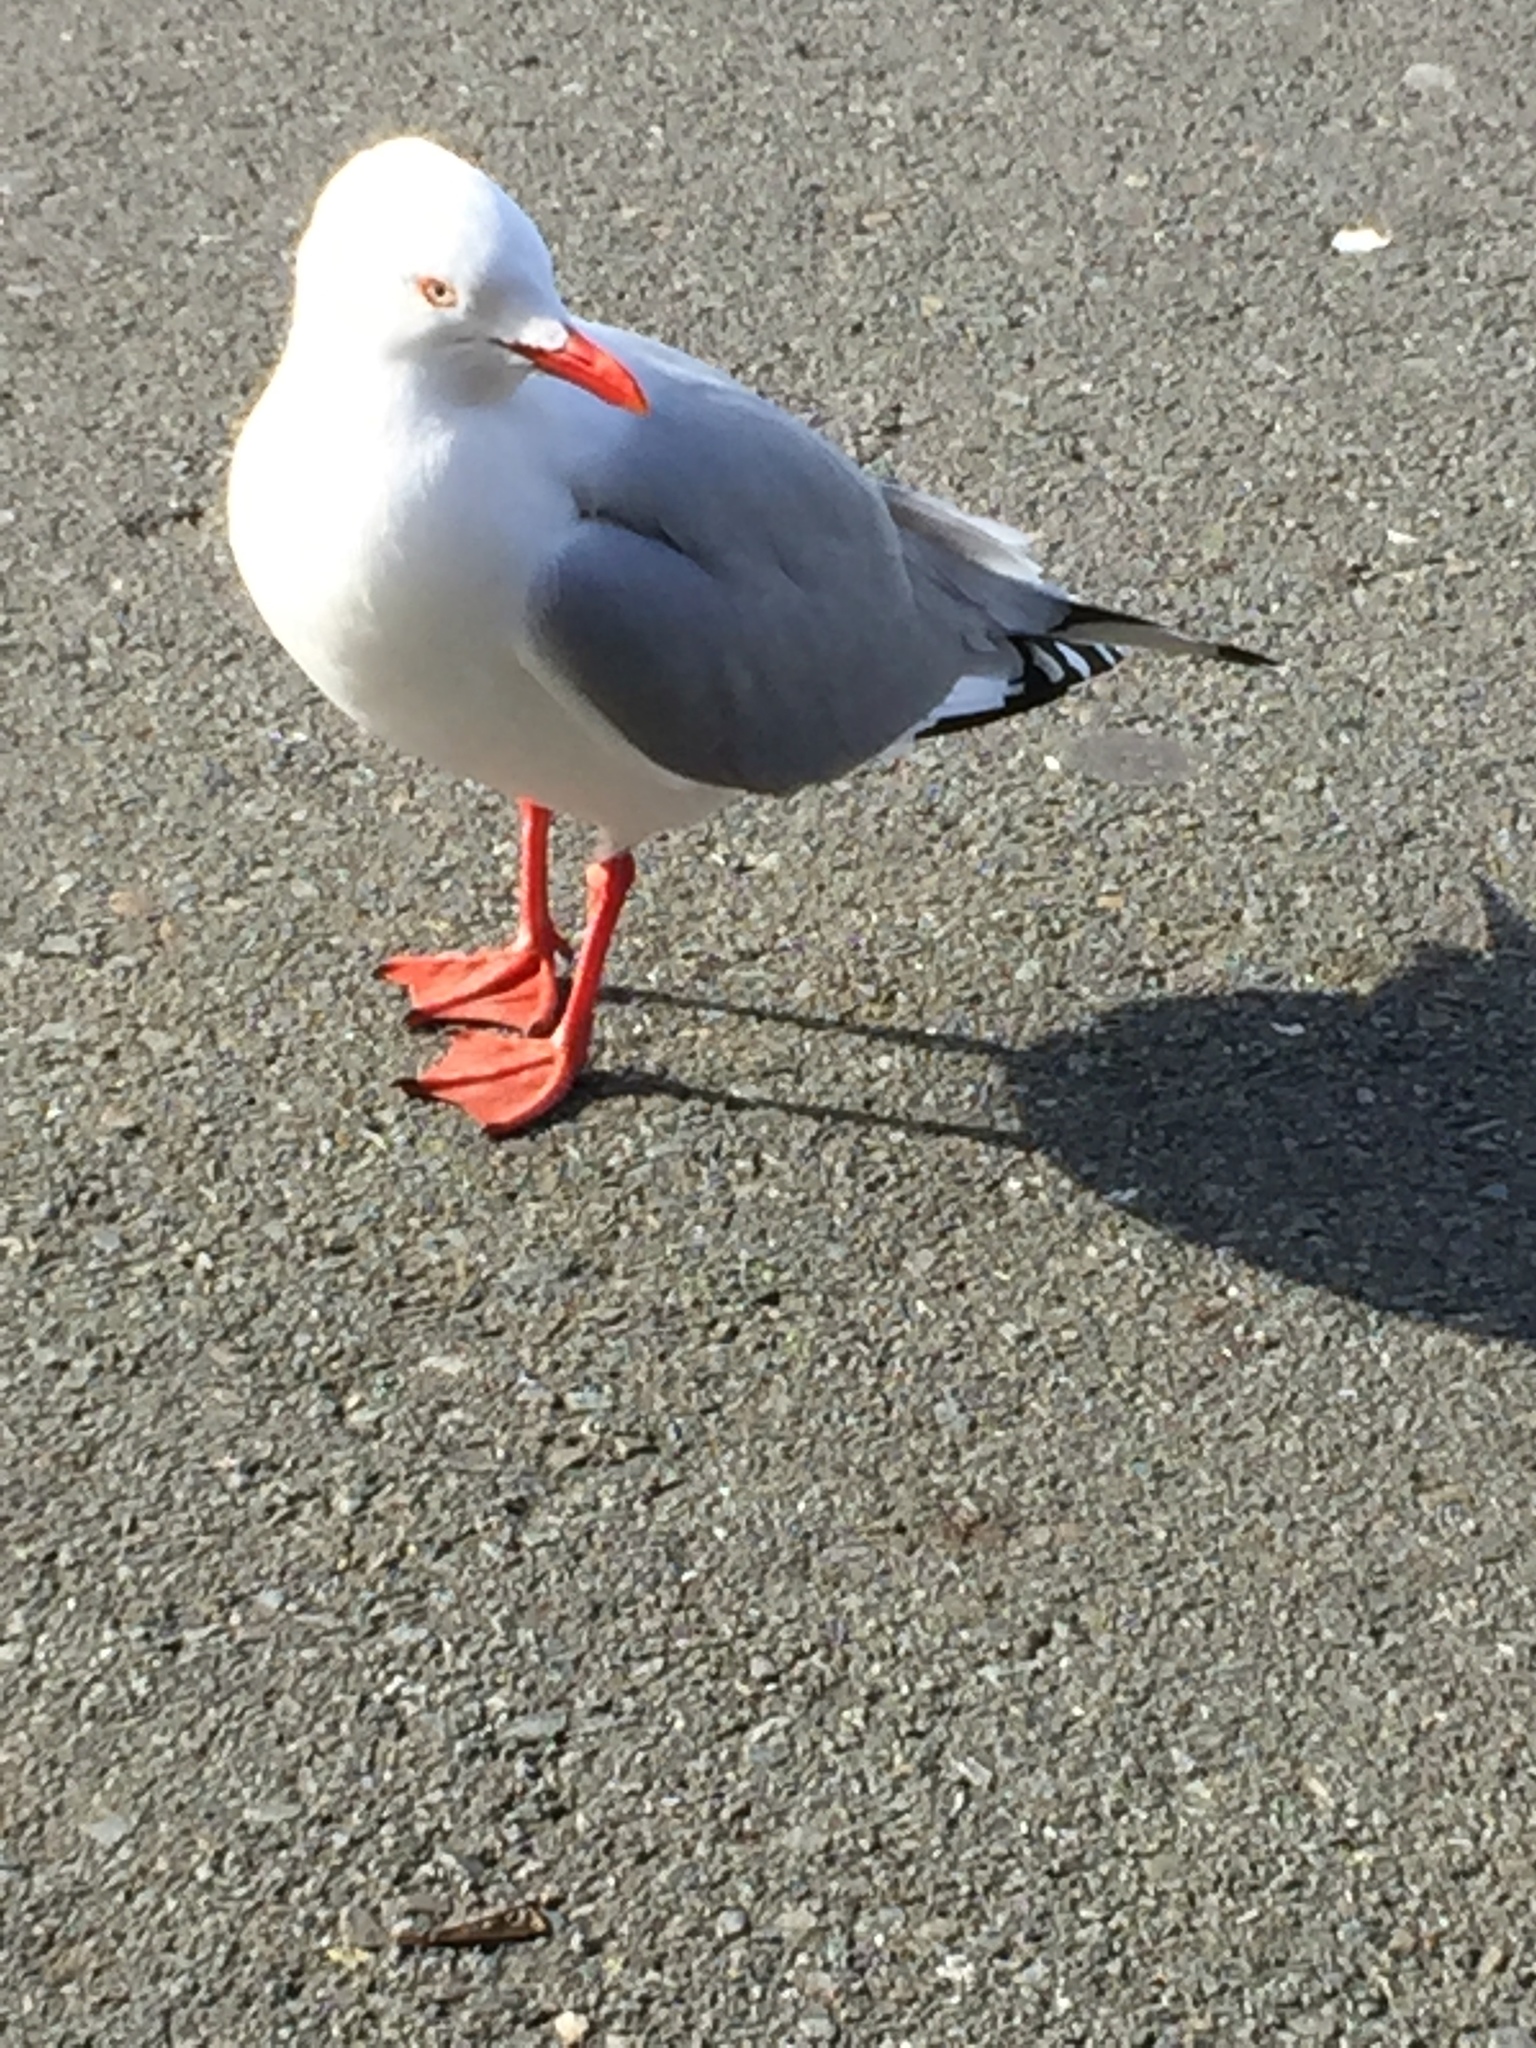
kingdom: Animalia
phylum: Chordata
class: Aves
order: Charadriiformes
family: Laridae
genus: Chroicocephalus
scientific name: Chroicocephalus novaehollandiae
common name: Silver gull
